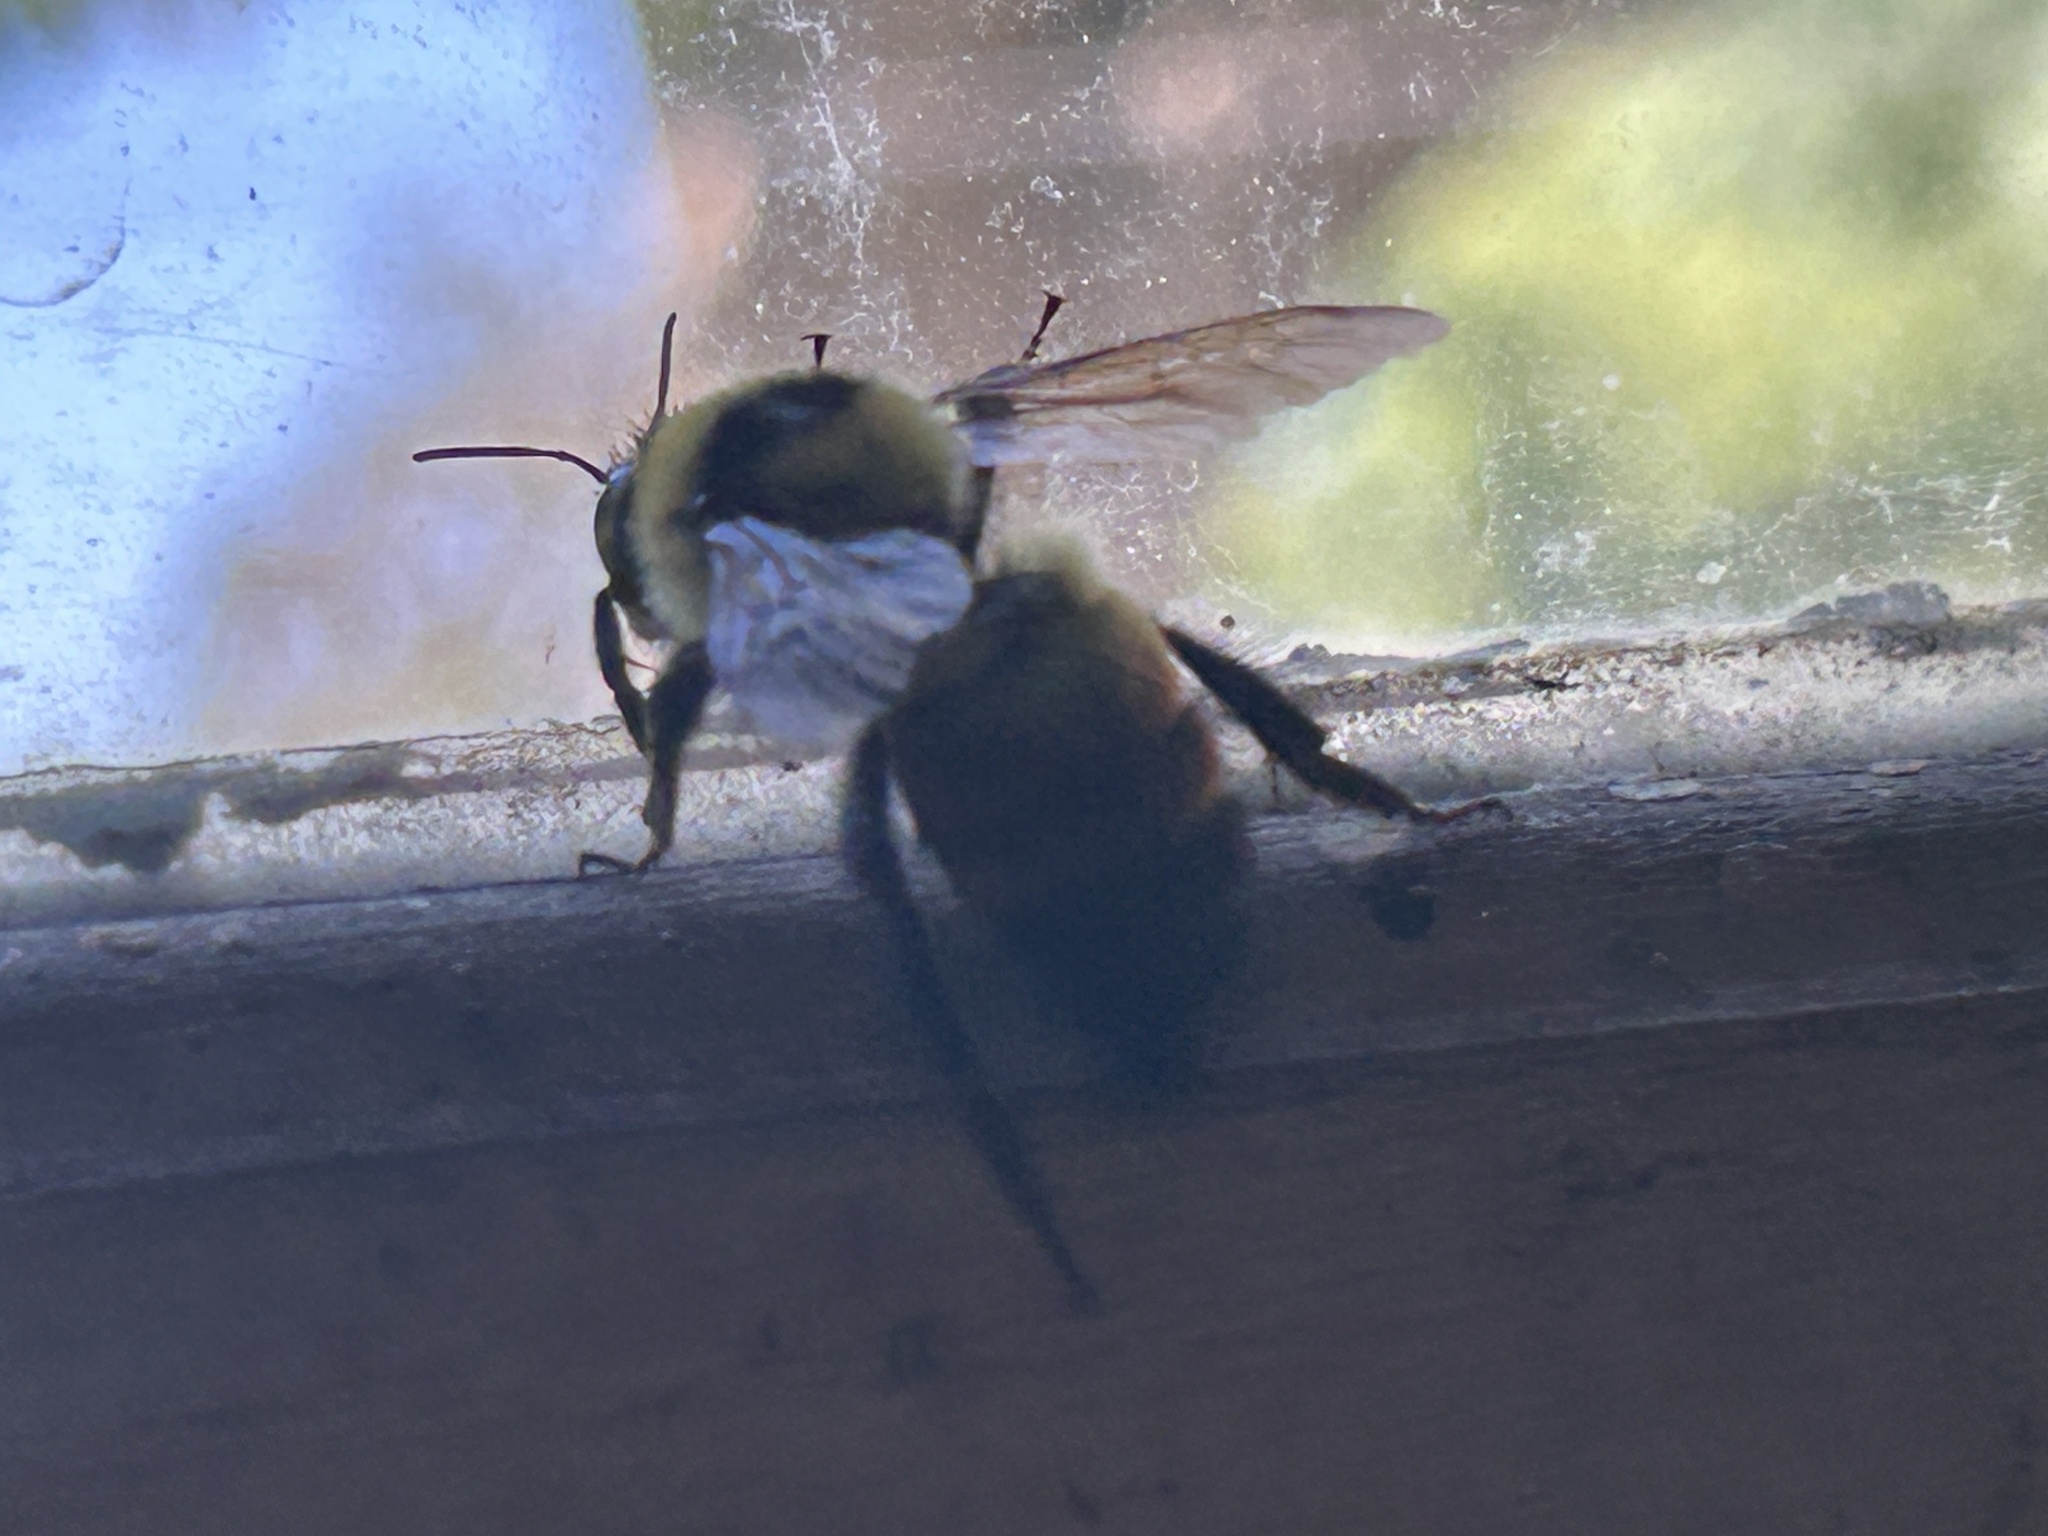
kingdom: Animalia
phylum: Arthropoda
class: Insecta
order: Hymenoptera
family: Apidae
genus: Bombus
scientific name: Bombus rufocinctus
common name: Red-belted bumble bee
